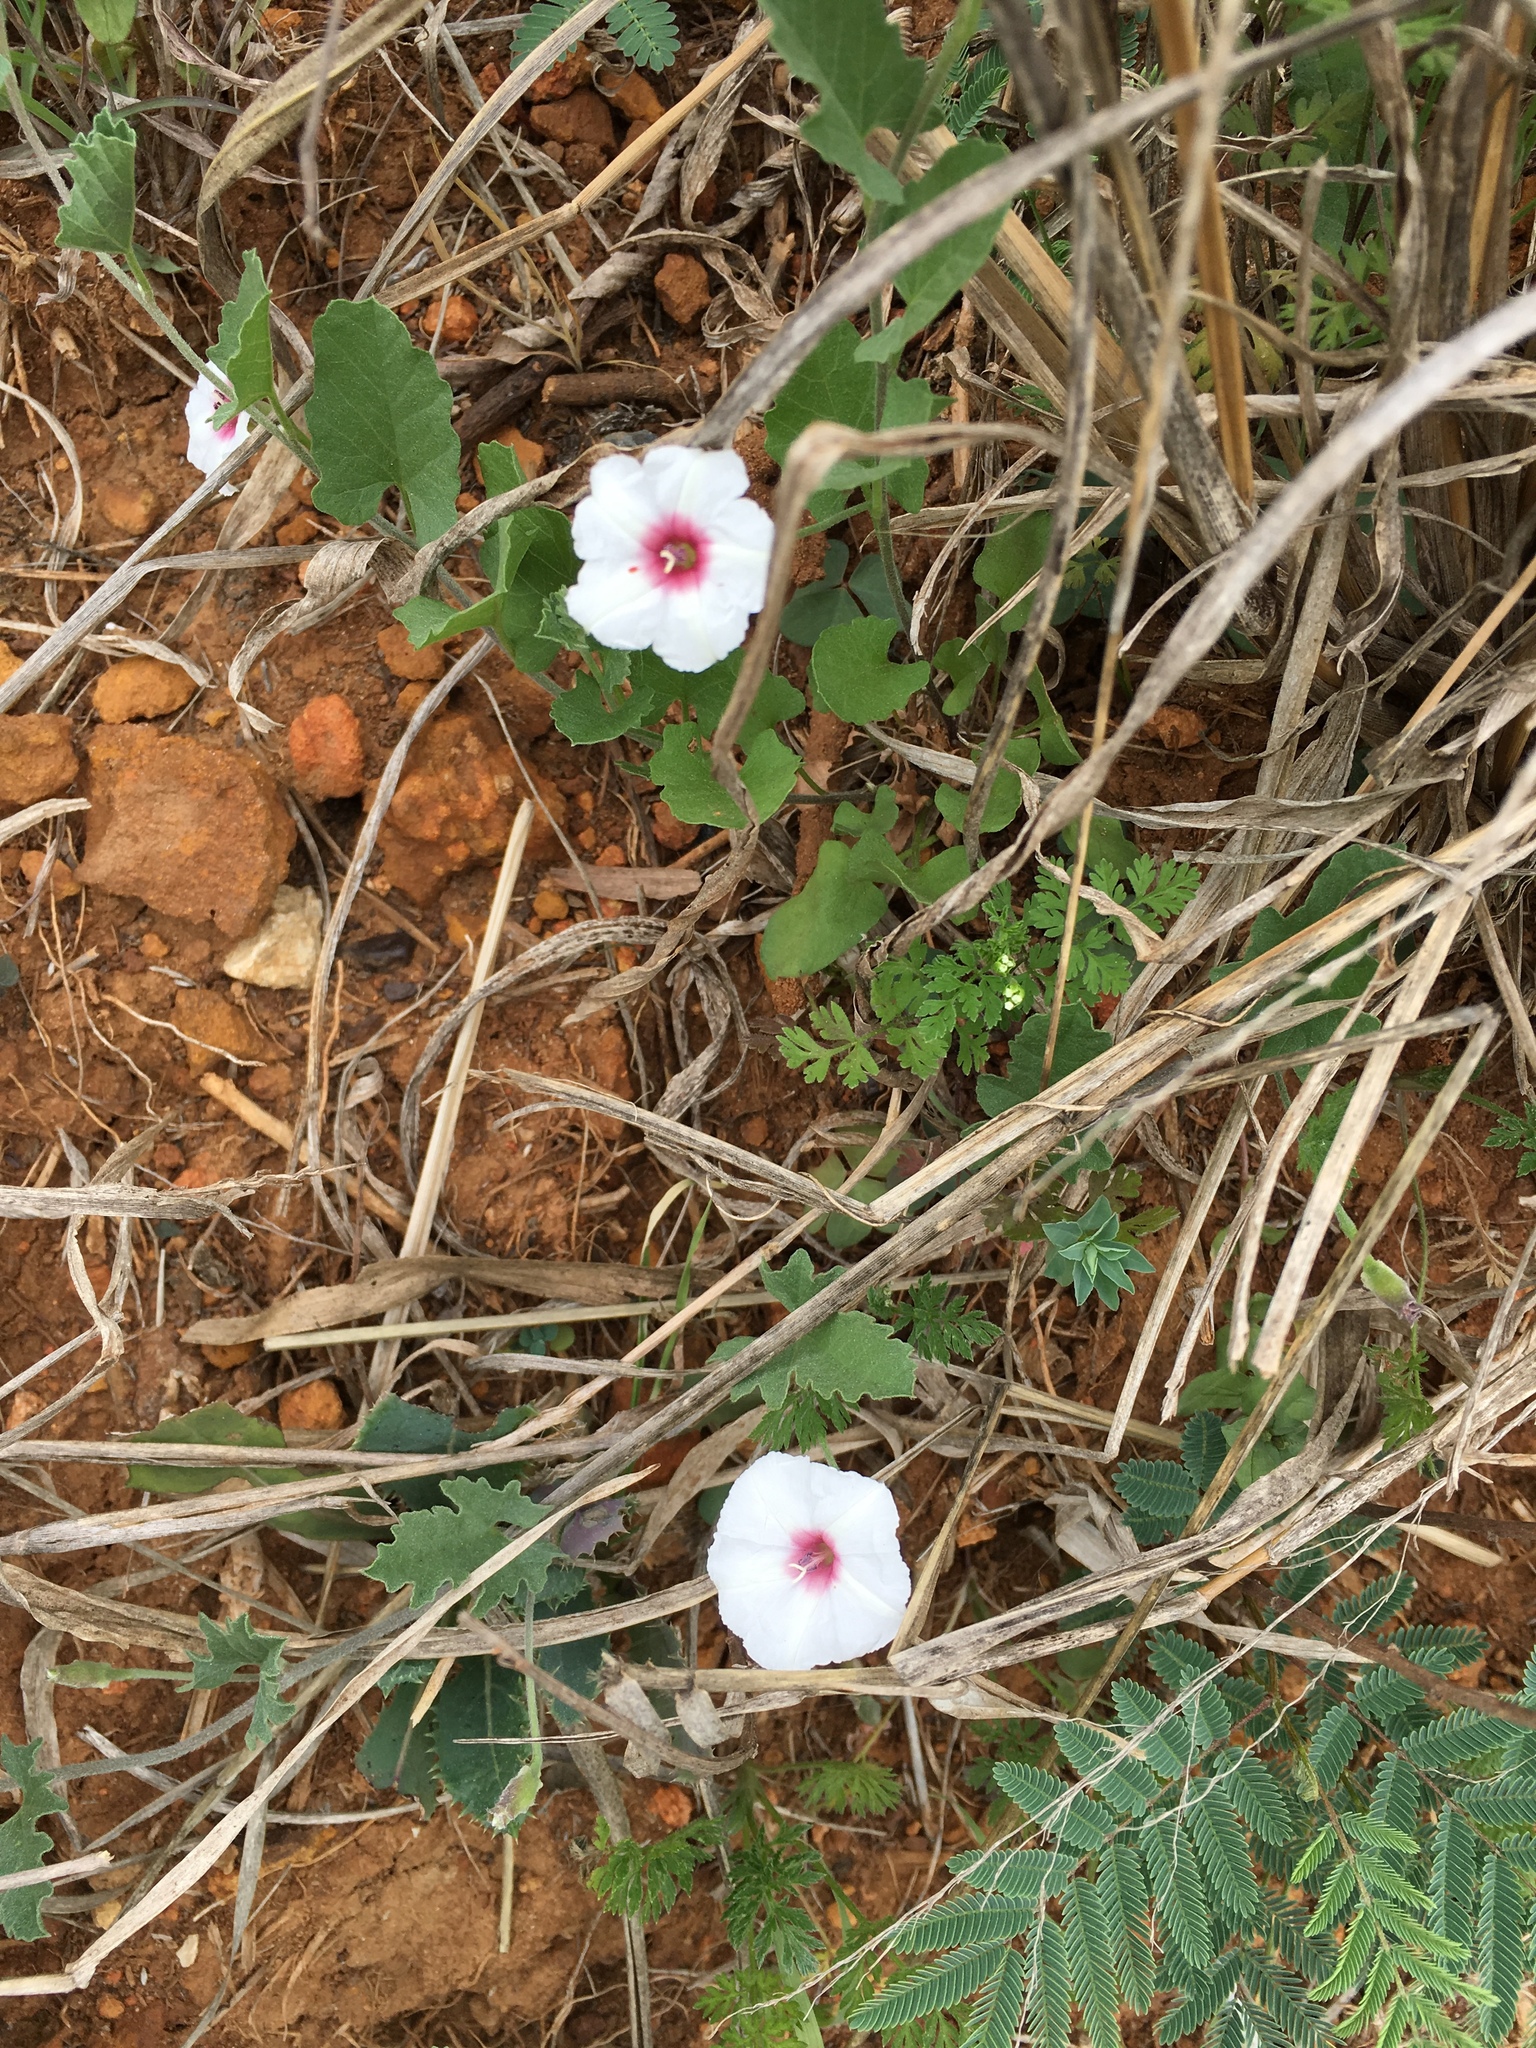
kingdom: Plantae
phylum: Tracheophyta
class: Magnoliopsida
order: Solanales
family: Convolvulaceae
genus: Convolvulus
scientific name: Convolvulus equitans
